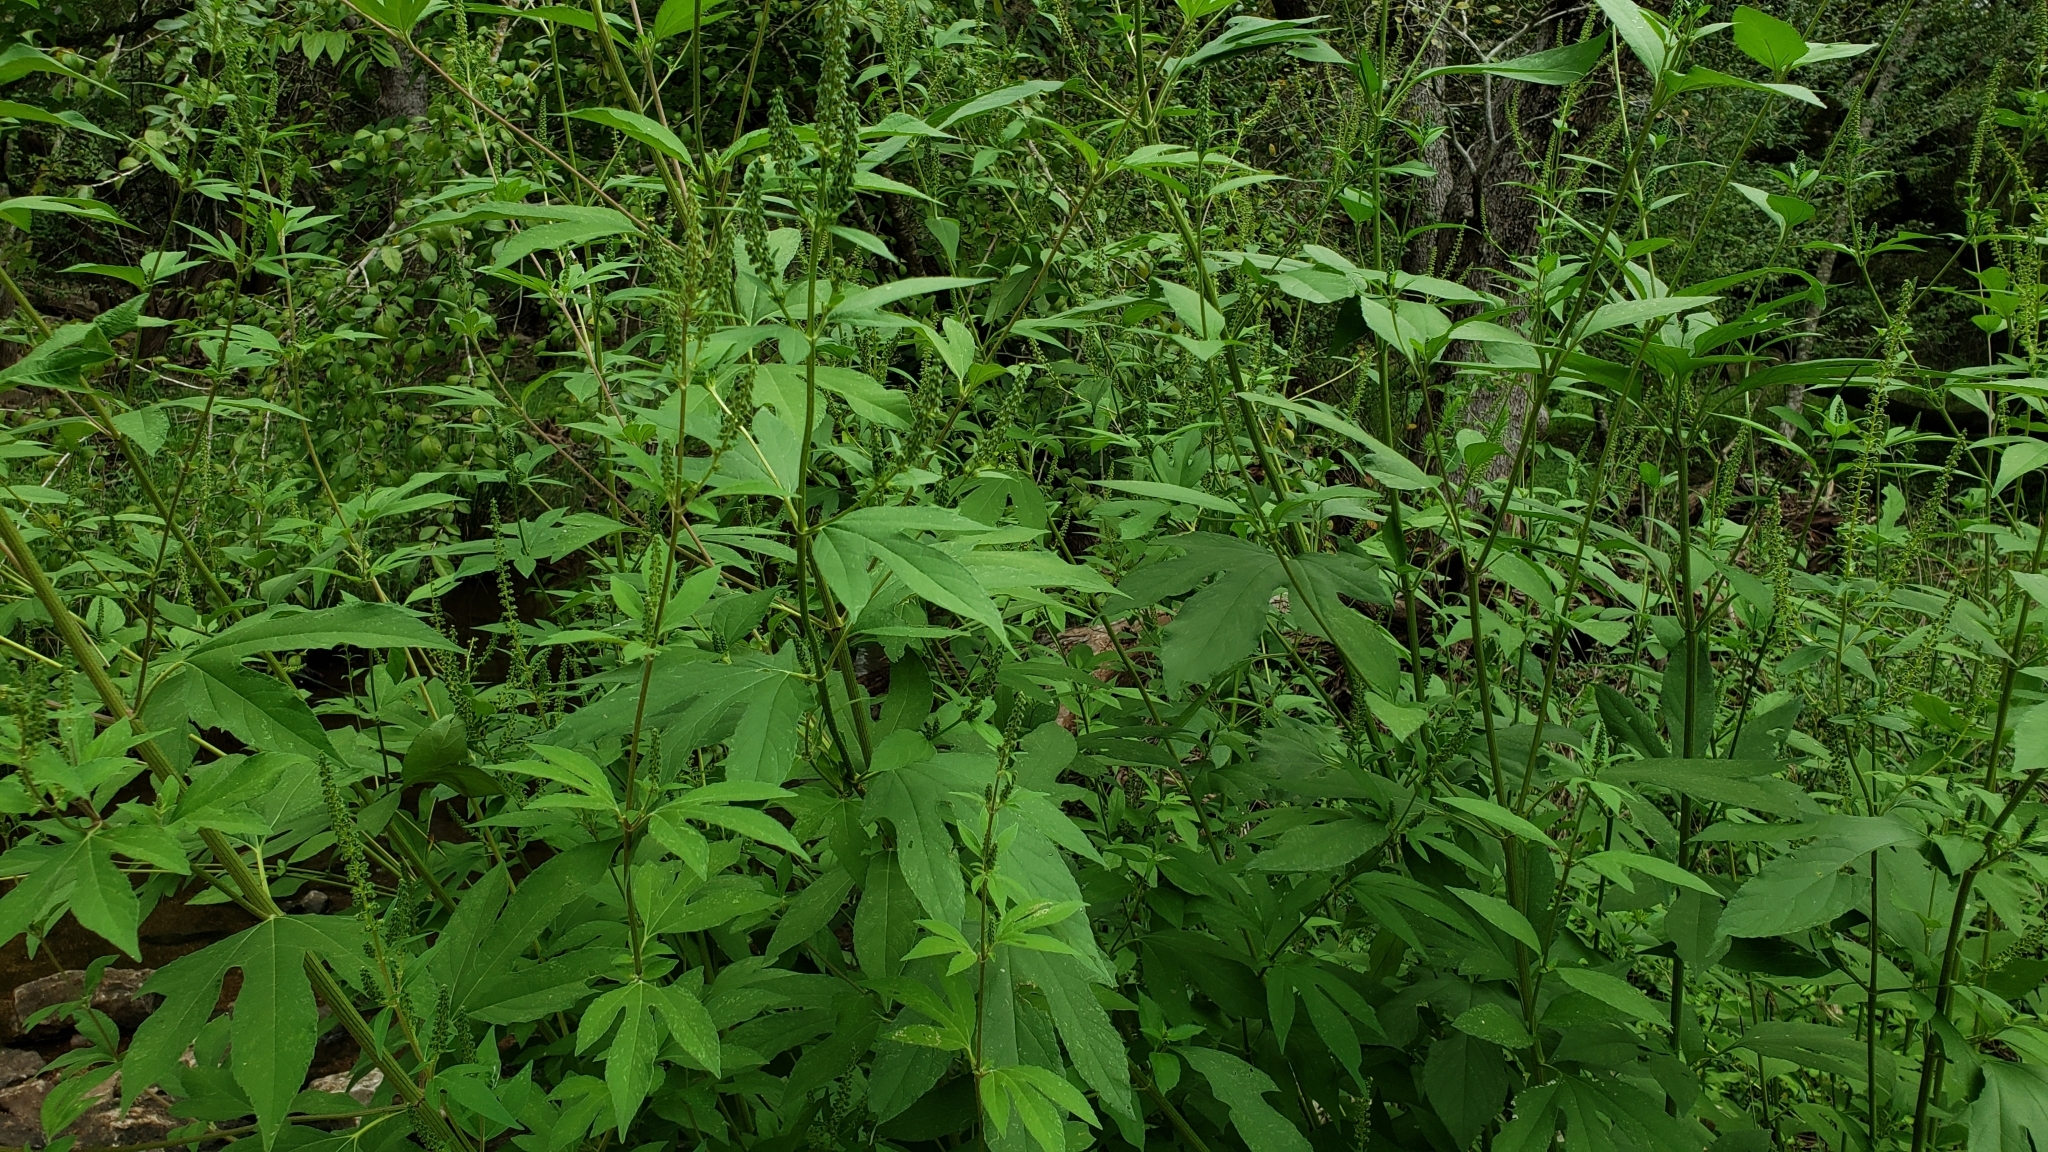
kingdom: Plantae
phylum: Tracheophyta
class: Magnoliopsida
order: Asterales
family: Asteraceae
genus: Ambrosia
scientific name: Ambrosia trifida
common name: Giant ragweed
